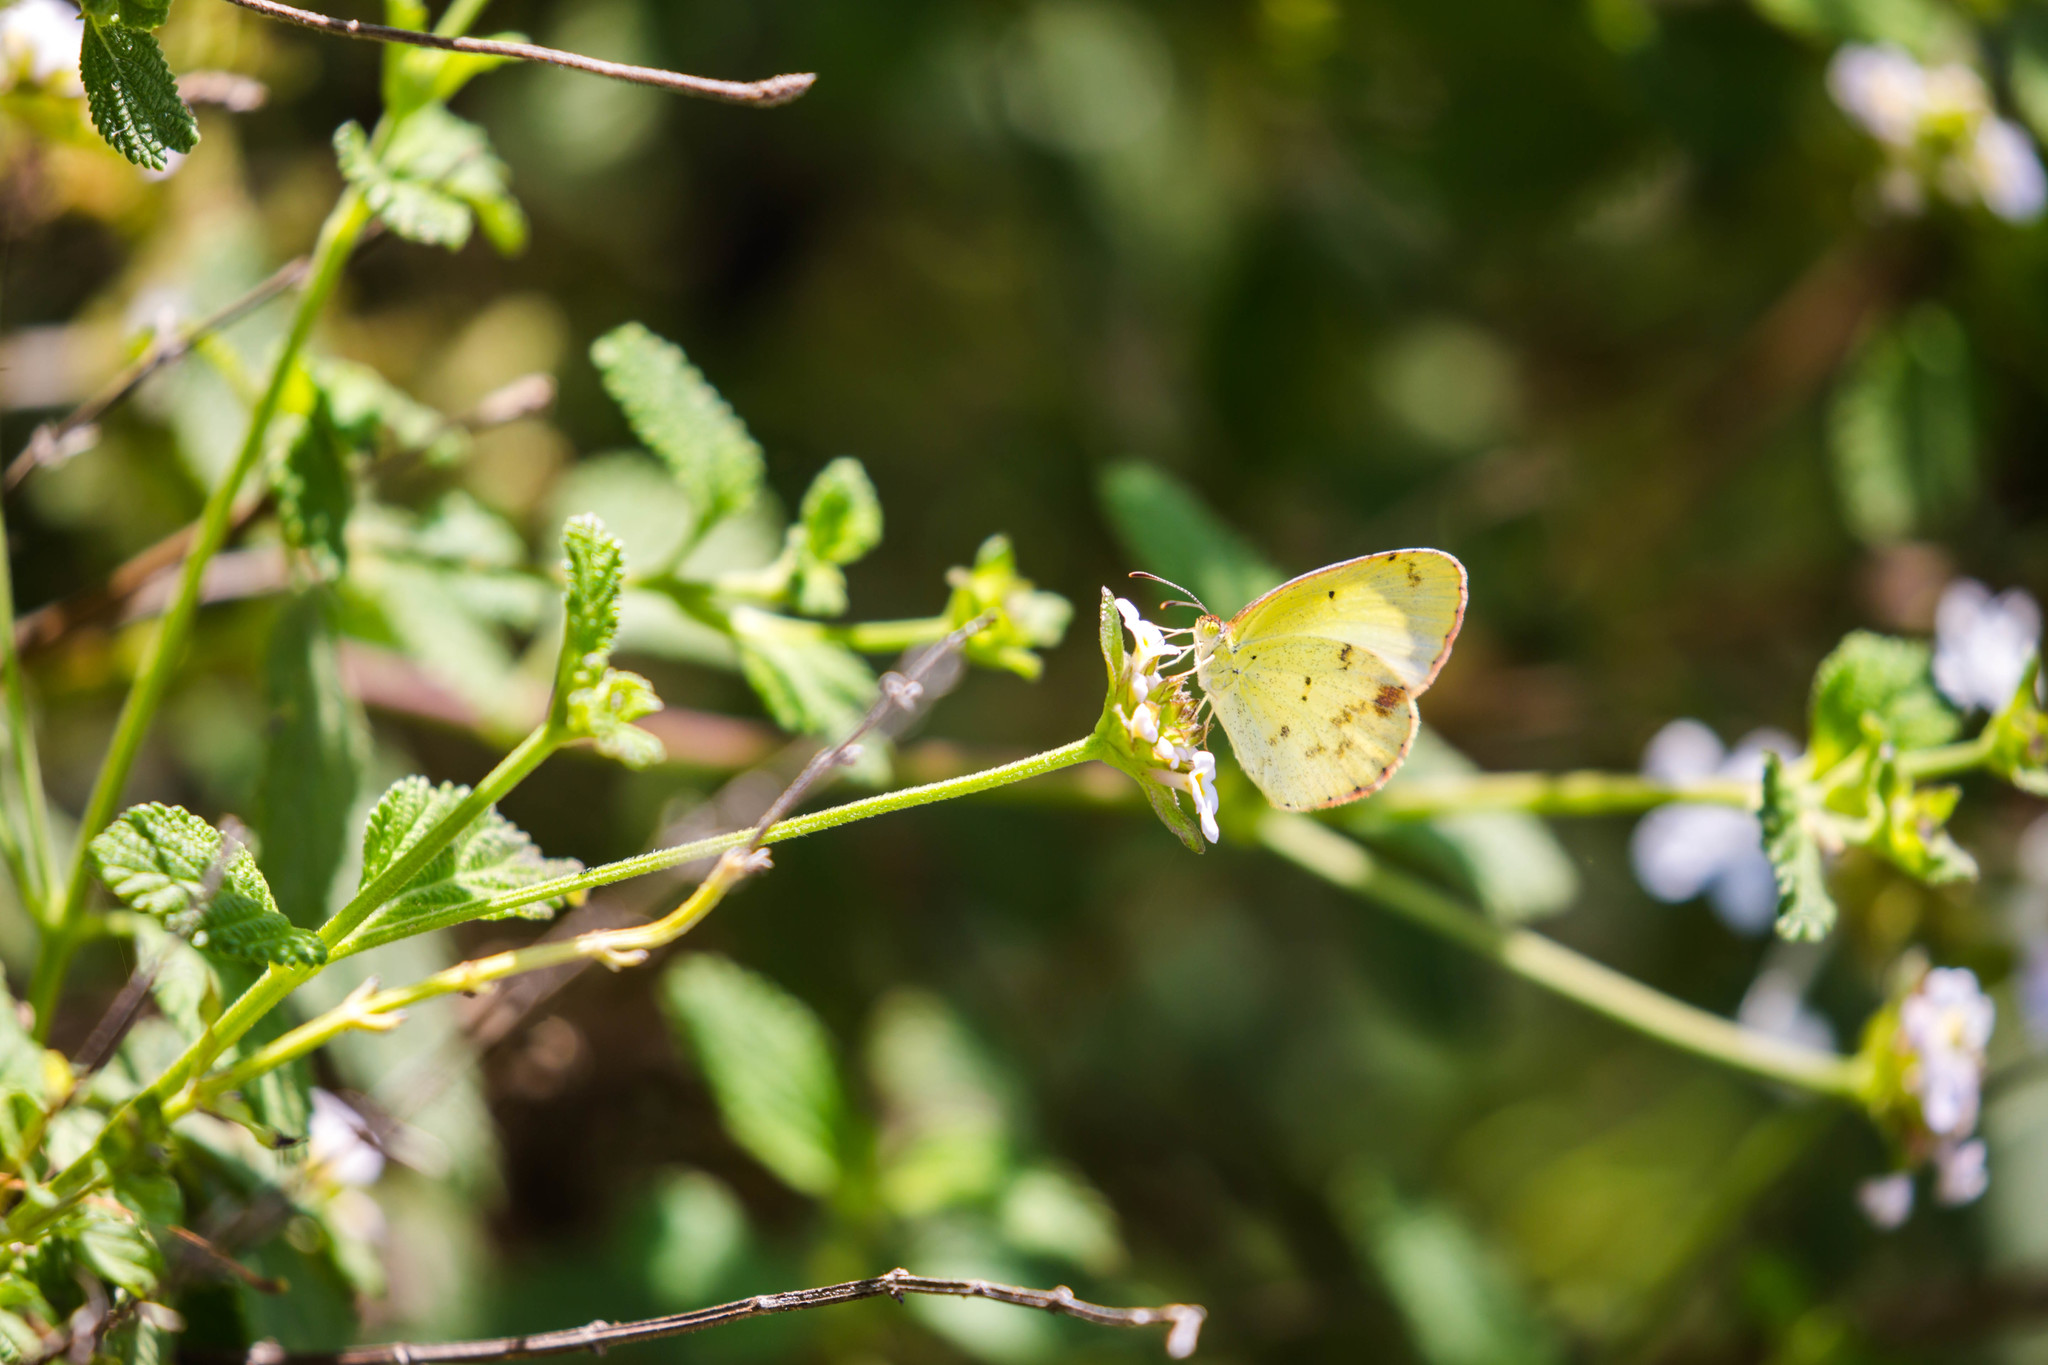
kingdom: Animalia
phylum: Arthropoda
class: Insecta
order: Lepidoptera
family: Pieridae
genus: Pyrisitia
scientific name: Pyrisitia lisa
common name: Little yellow
